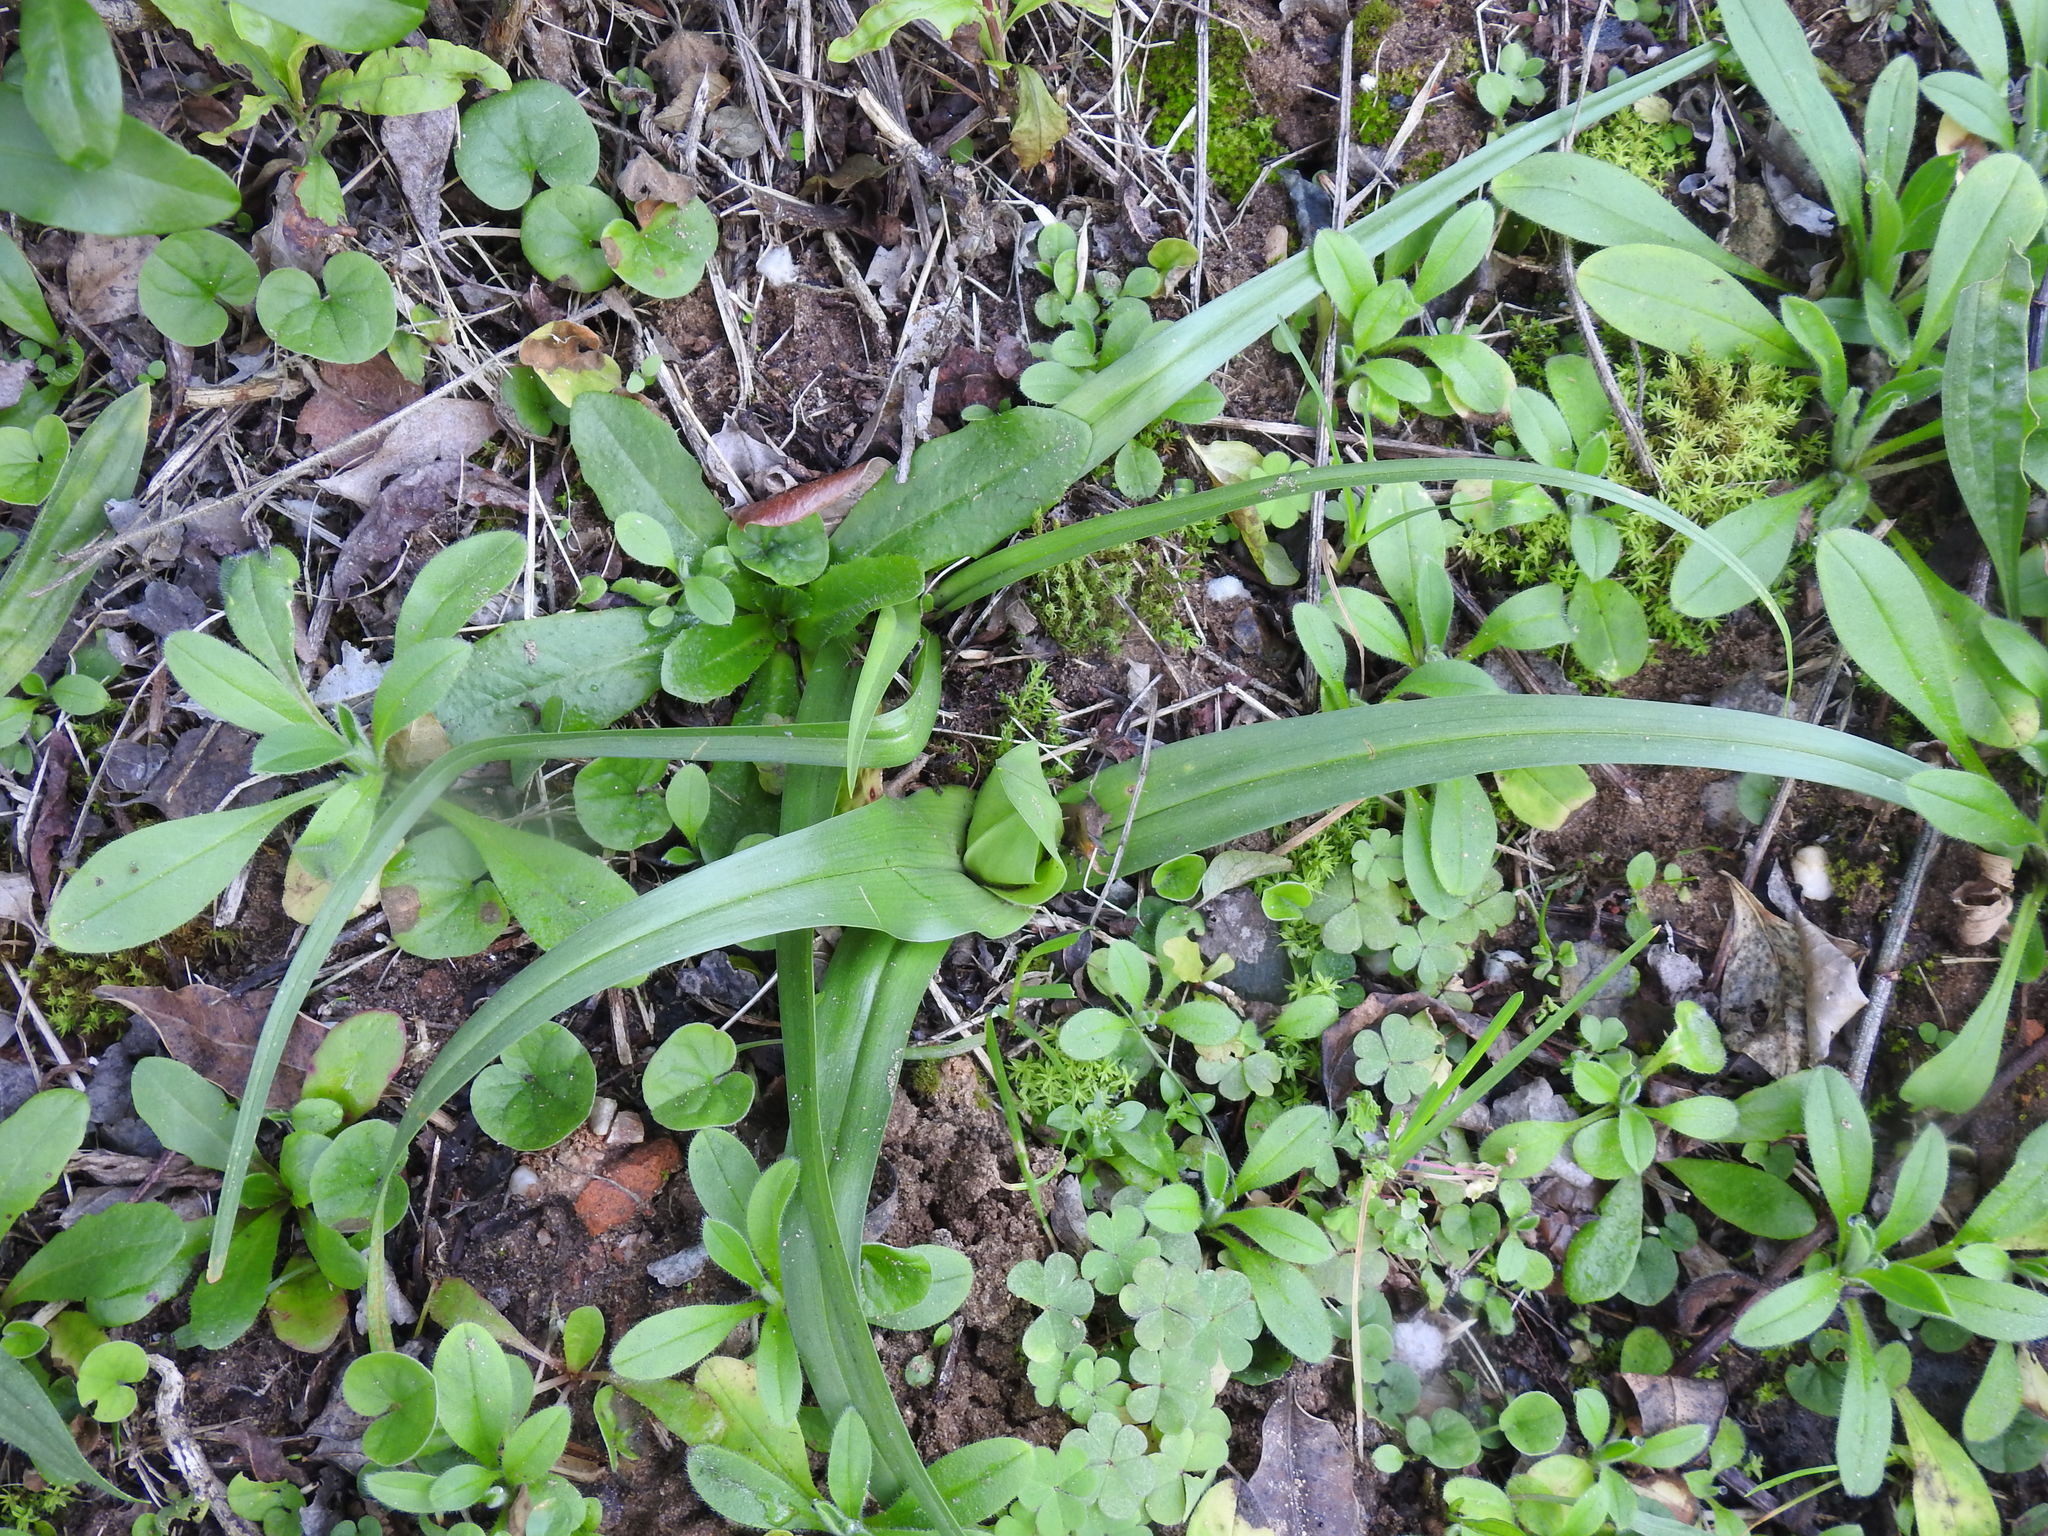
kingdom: Plantae
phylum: Tracheophyta
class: Liliopsida
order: Liliales
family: Colchicaceae
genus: Colchicum
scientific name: Colchicum longipes
